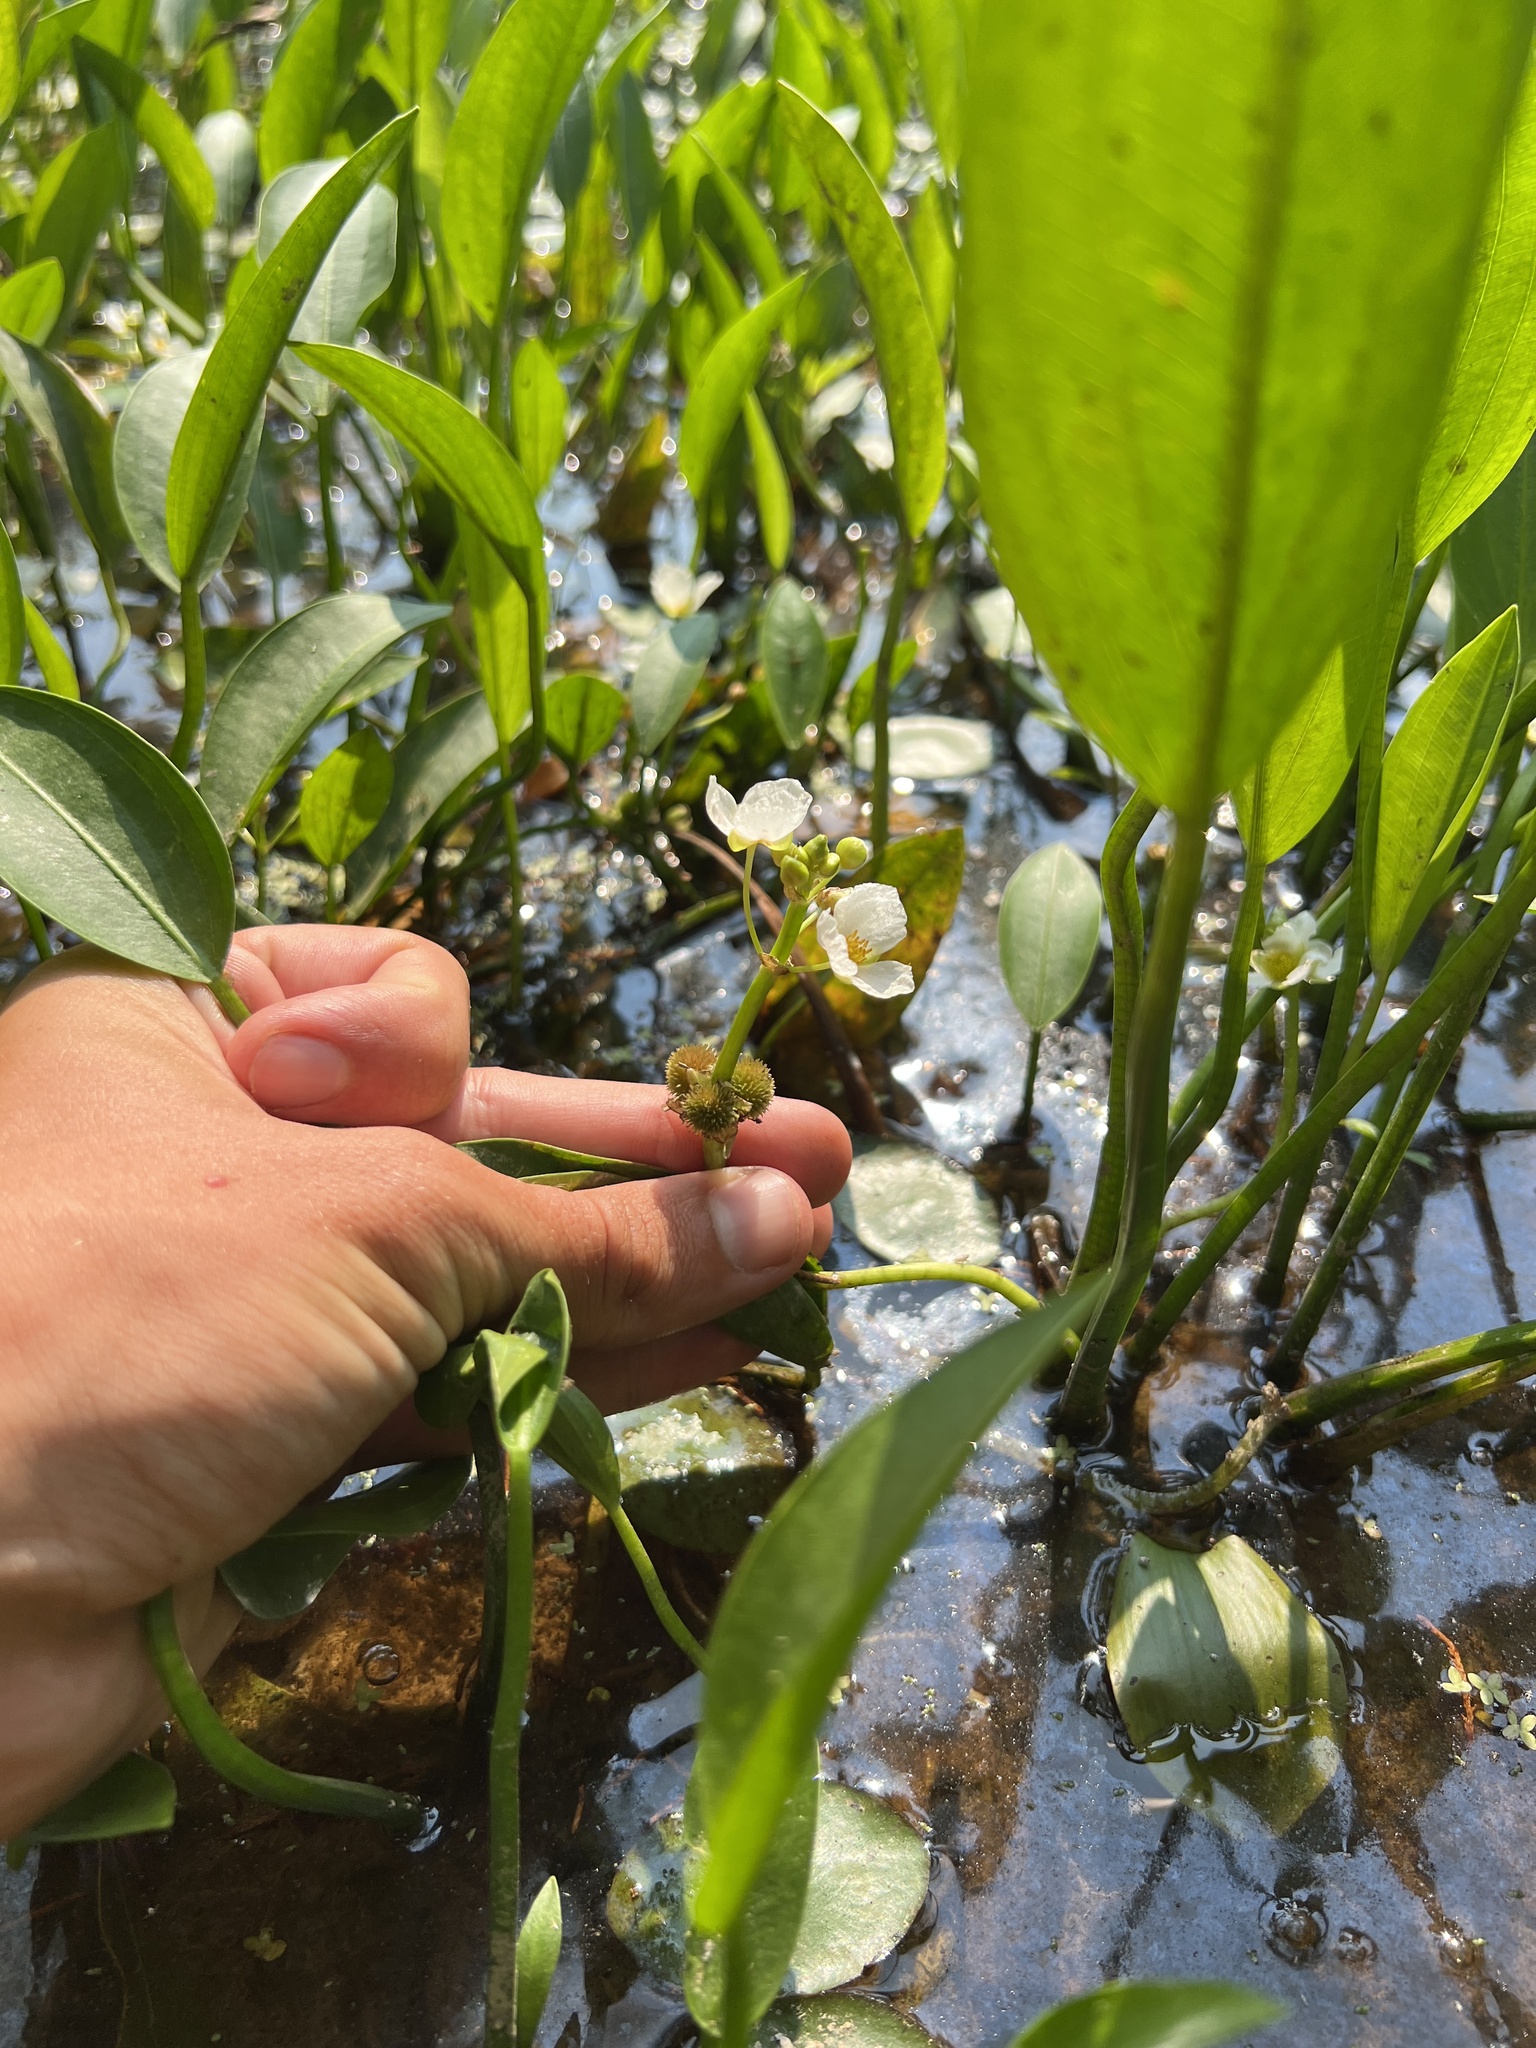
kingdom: Plantae
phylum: Tracheophyta
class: Liliopsida
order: Alismatales
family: Alismataceae
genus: Sagittaria
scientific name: Sagittaria rigida
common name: Canadian arrowhead
